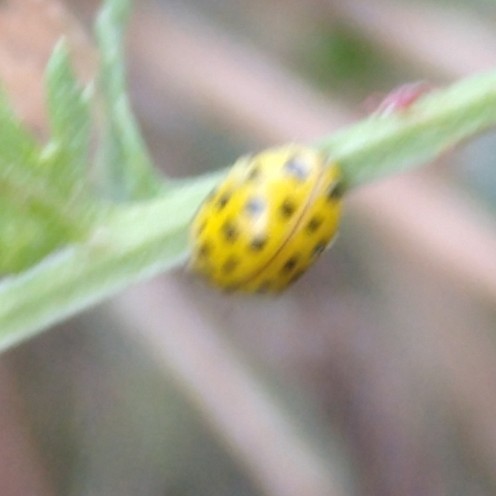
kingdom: Animalia
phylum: Arthropoda
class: Insecta
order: Coleoptera
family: Coccinellidae
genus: Psyllobora
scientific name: Psyllobora vigintiduopunctata
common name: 22-spot ladybird
